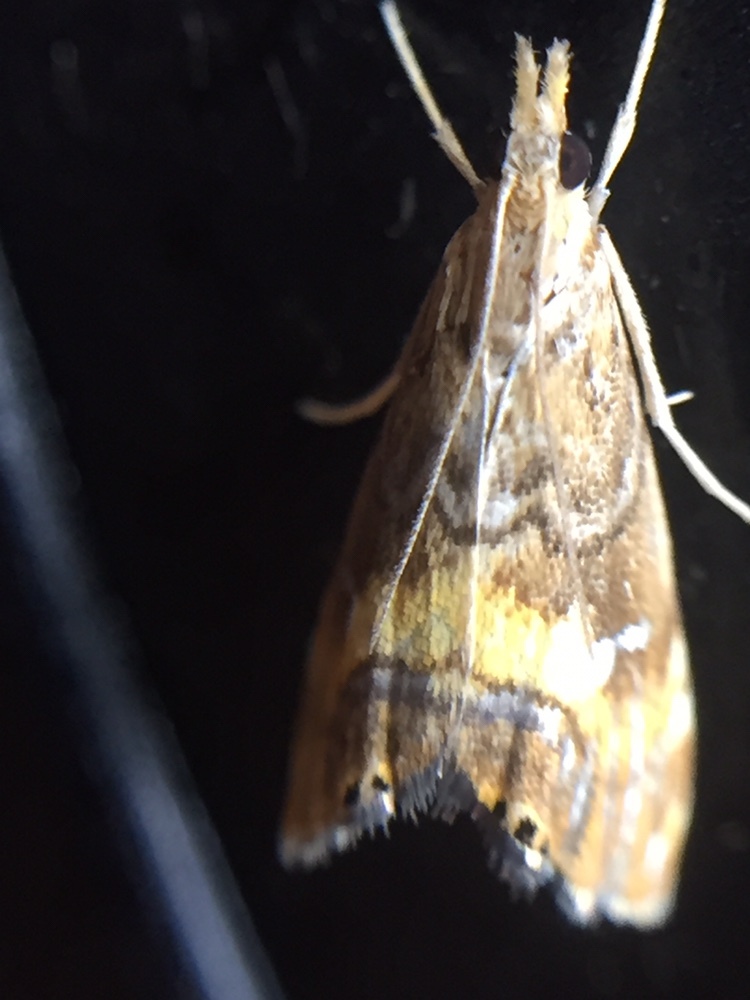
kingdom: Animalia
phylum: Arthropoda
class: Insecta
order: Lepidoptera
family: Crambidae
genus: Glaucocharis
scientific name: Glaucocharis chrysochyta
